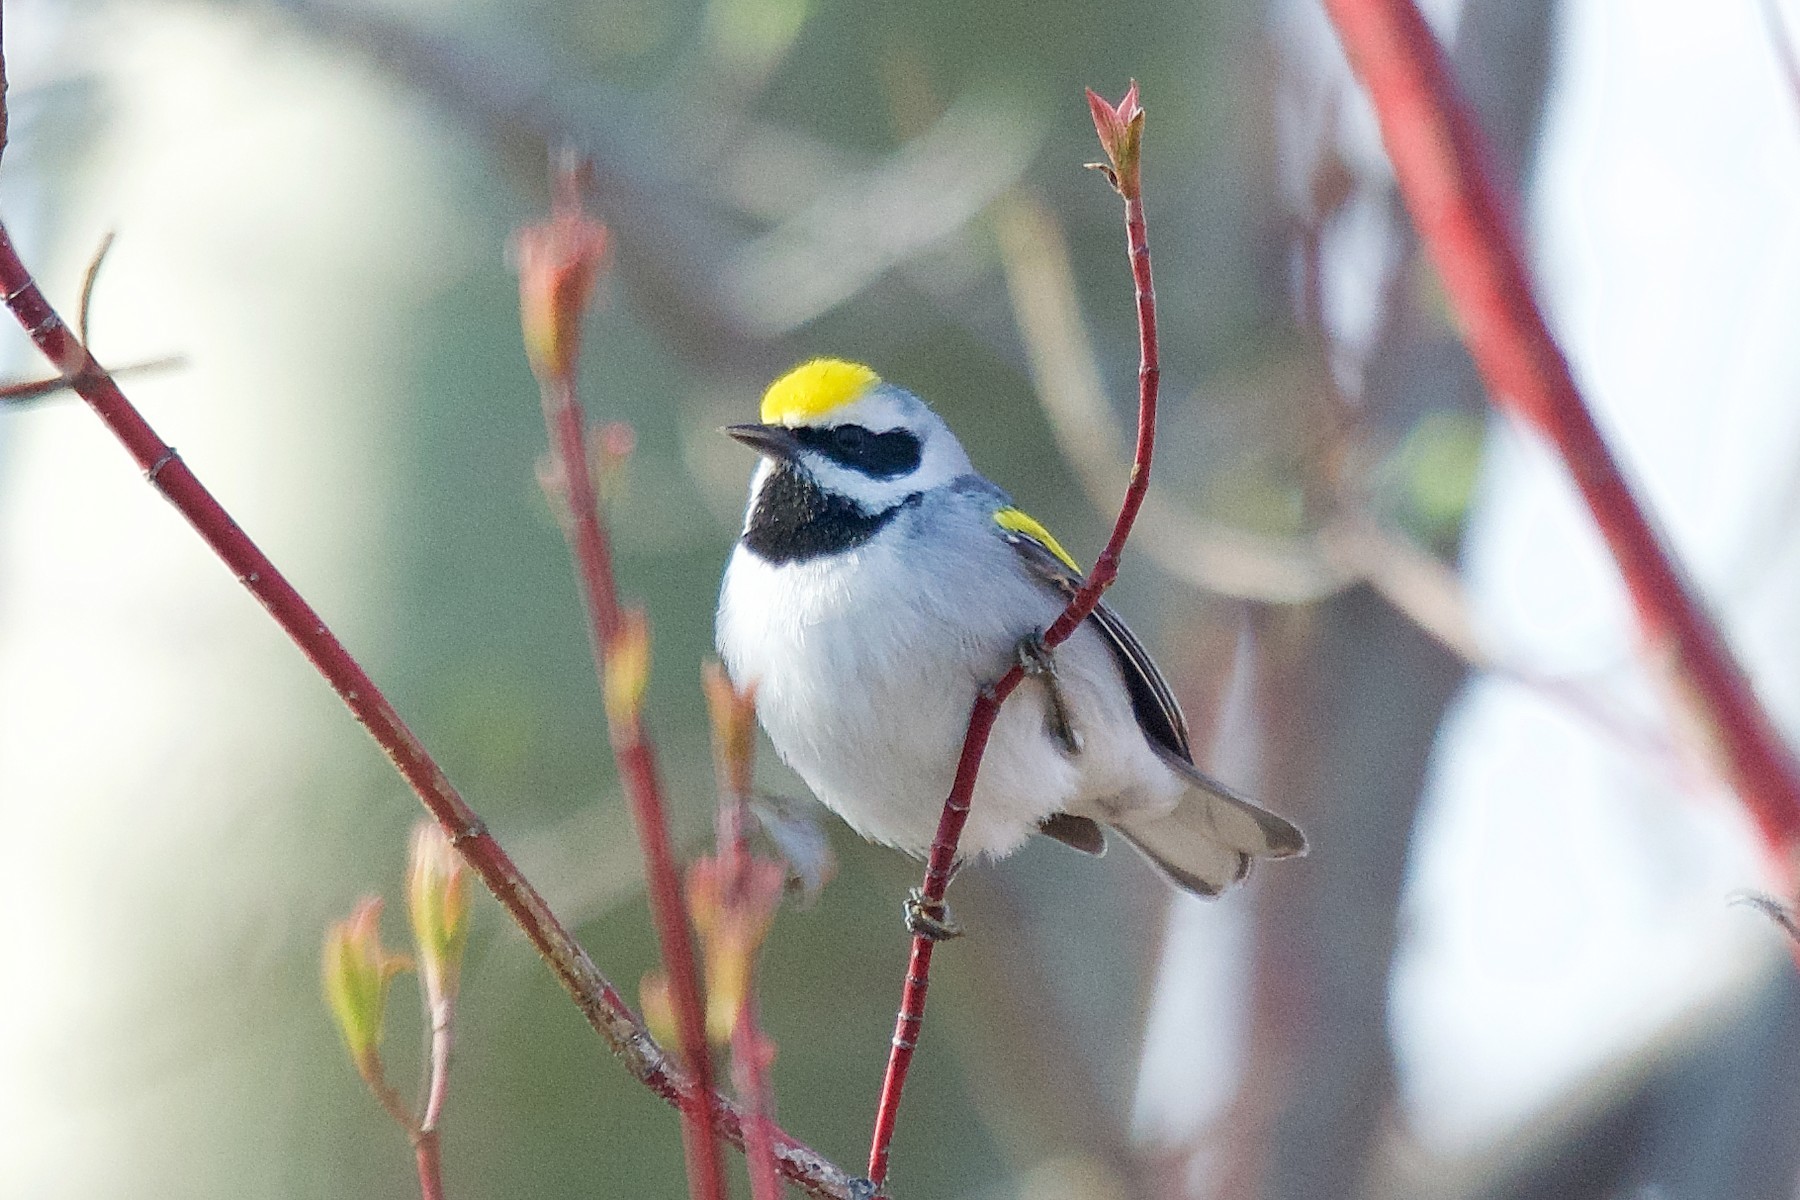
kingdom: Animalia
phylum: Chordata
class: Aves
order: Passeriformes
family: Parulidae
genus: Vermivora
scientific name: Vermivora chrysoptera
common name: Golden-winged warbler
